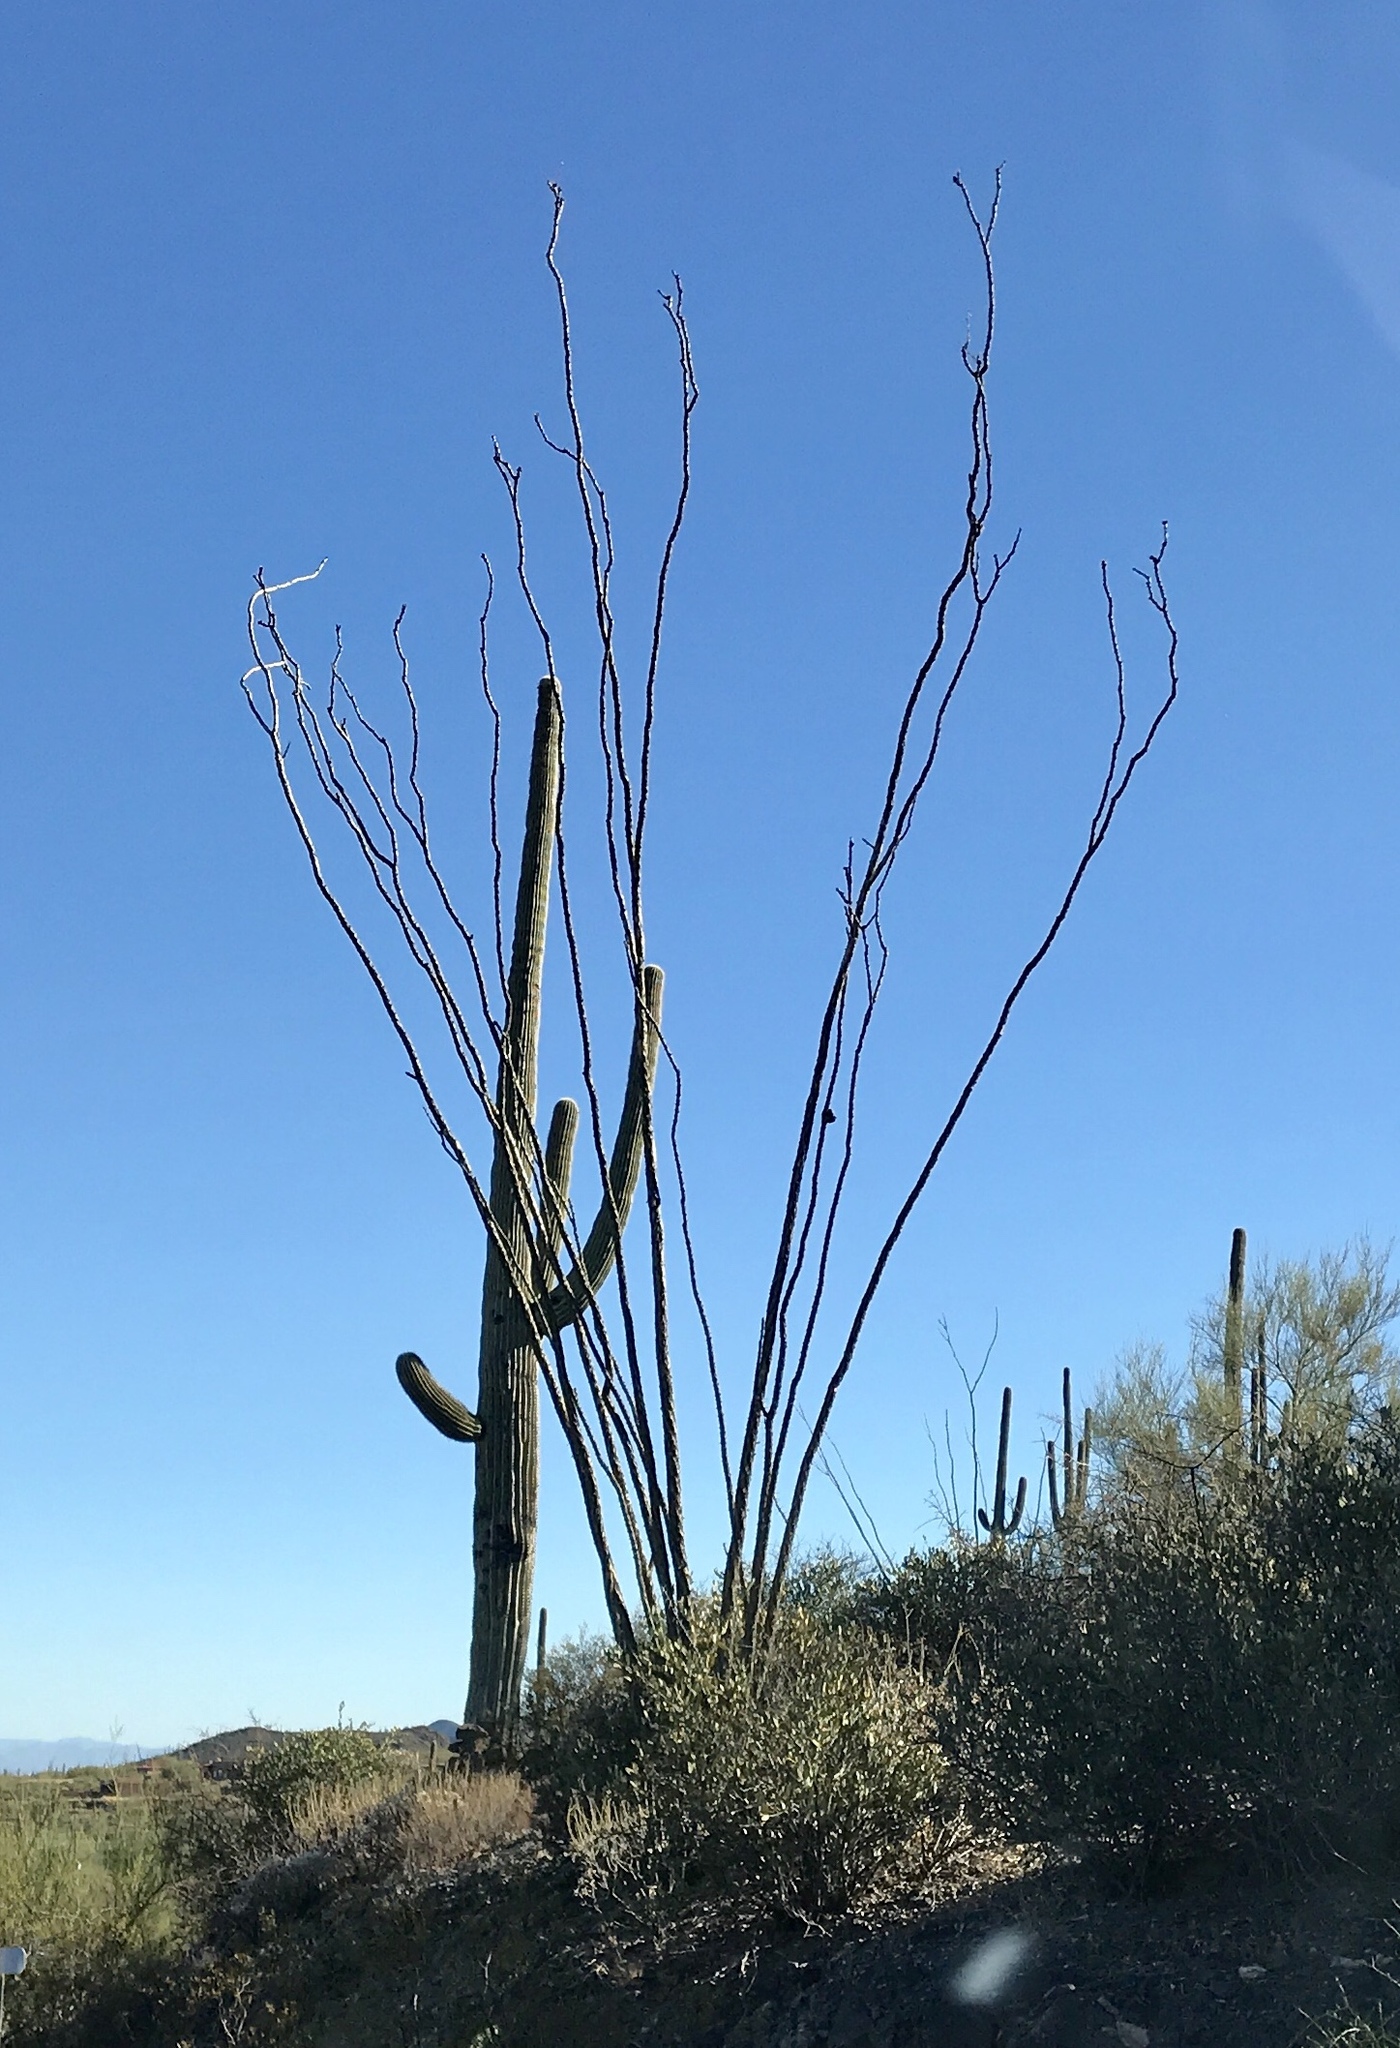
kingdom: Plantae
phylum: Tracheophyta
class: Magnoliopsida
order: Ericales
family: Fouquieriaceae
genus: Fouquieria
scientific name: Fouquieria splendens
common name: Vine-cactus
